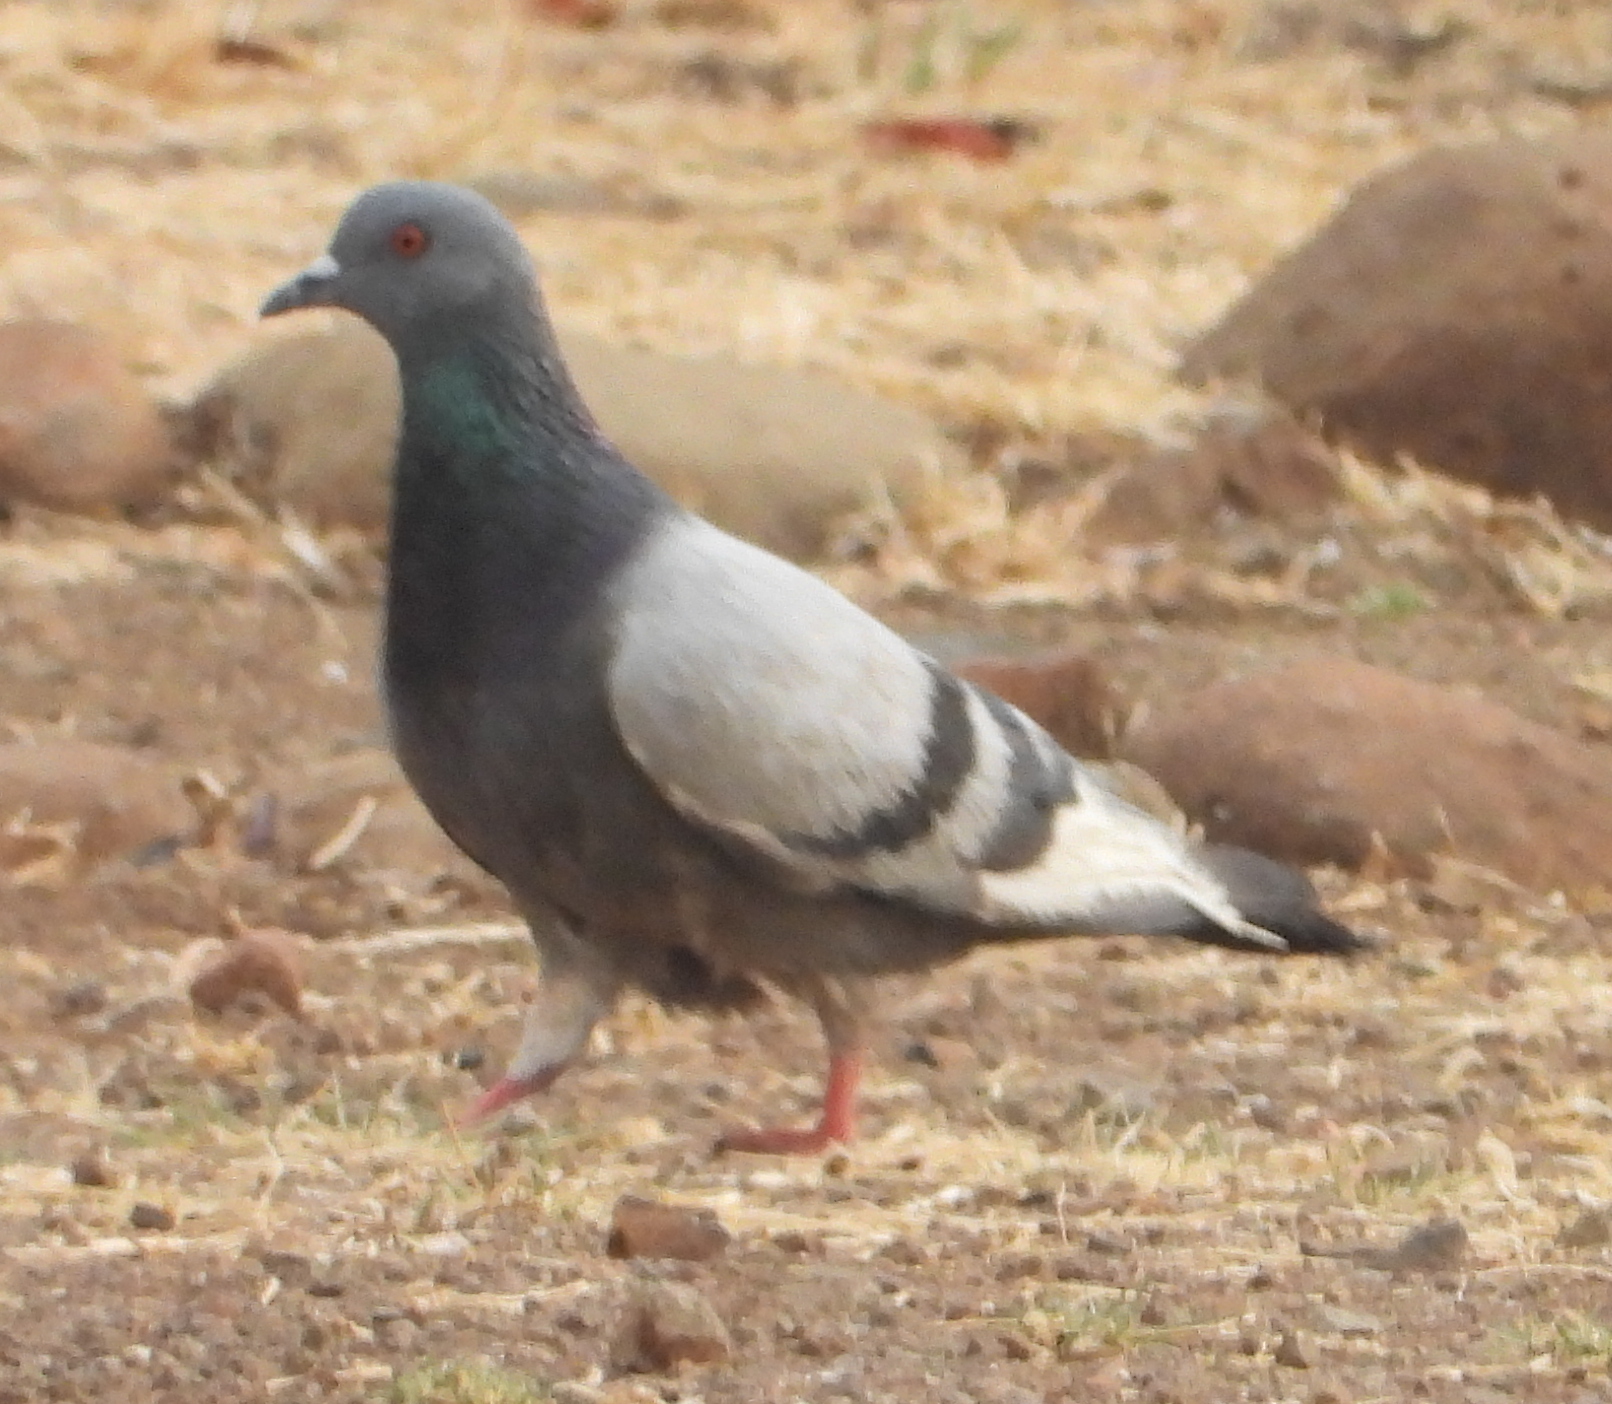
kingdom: Animalia
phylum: Chordata
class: Aves
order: Columbiformes
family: Columbidae
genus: Columba
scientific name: Columba livia
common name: Rock pigeon
